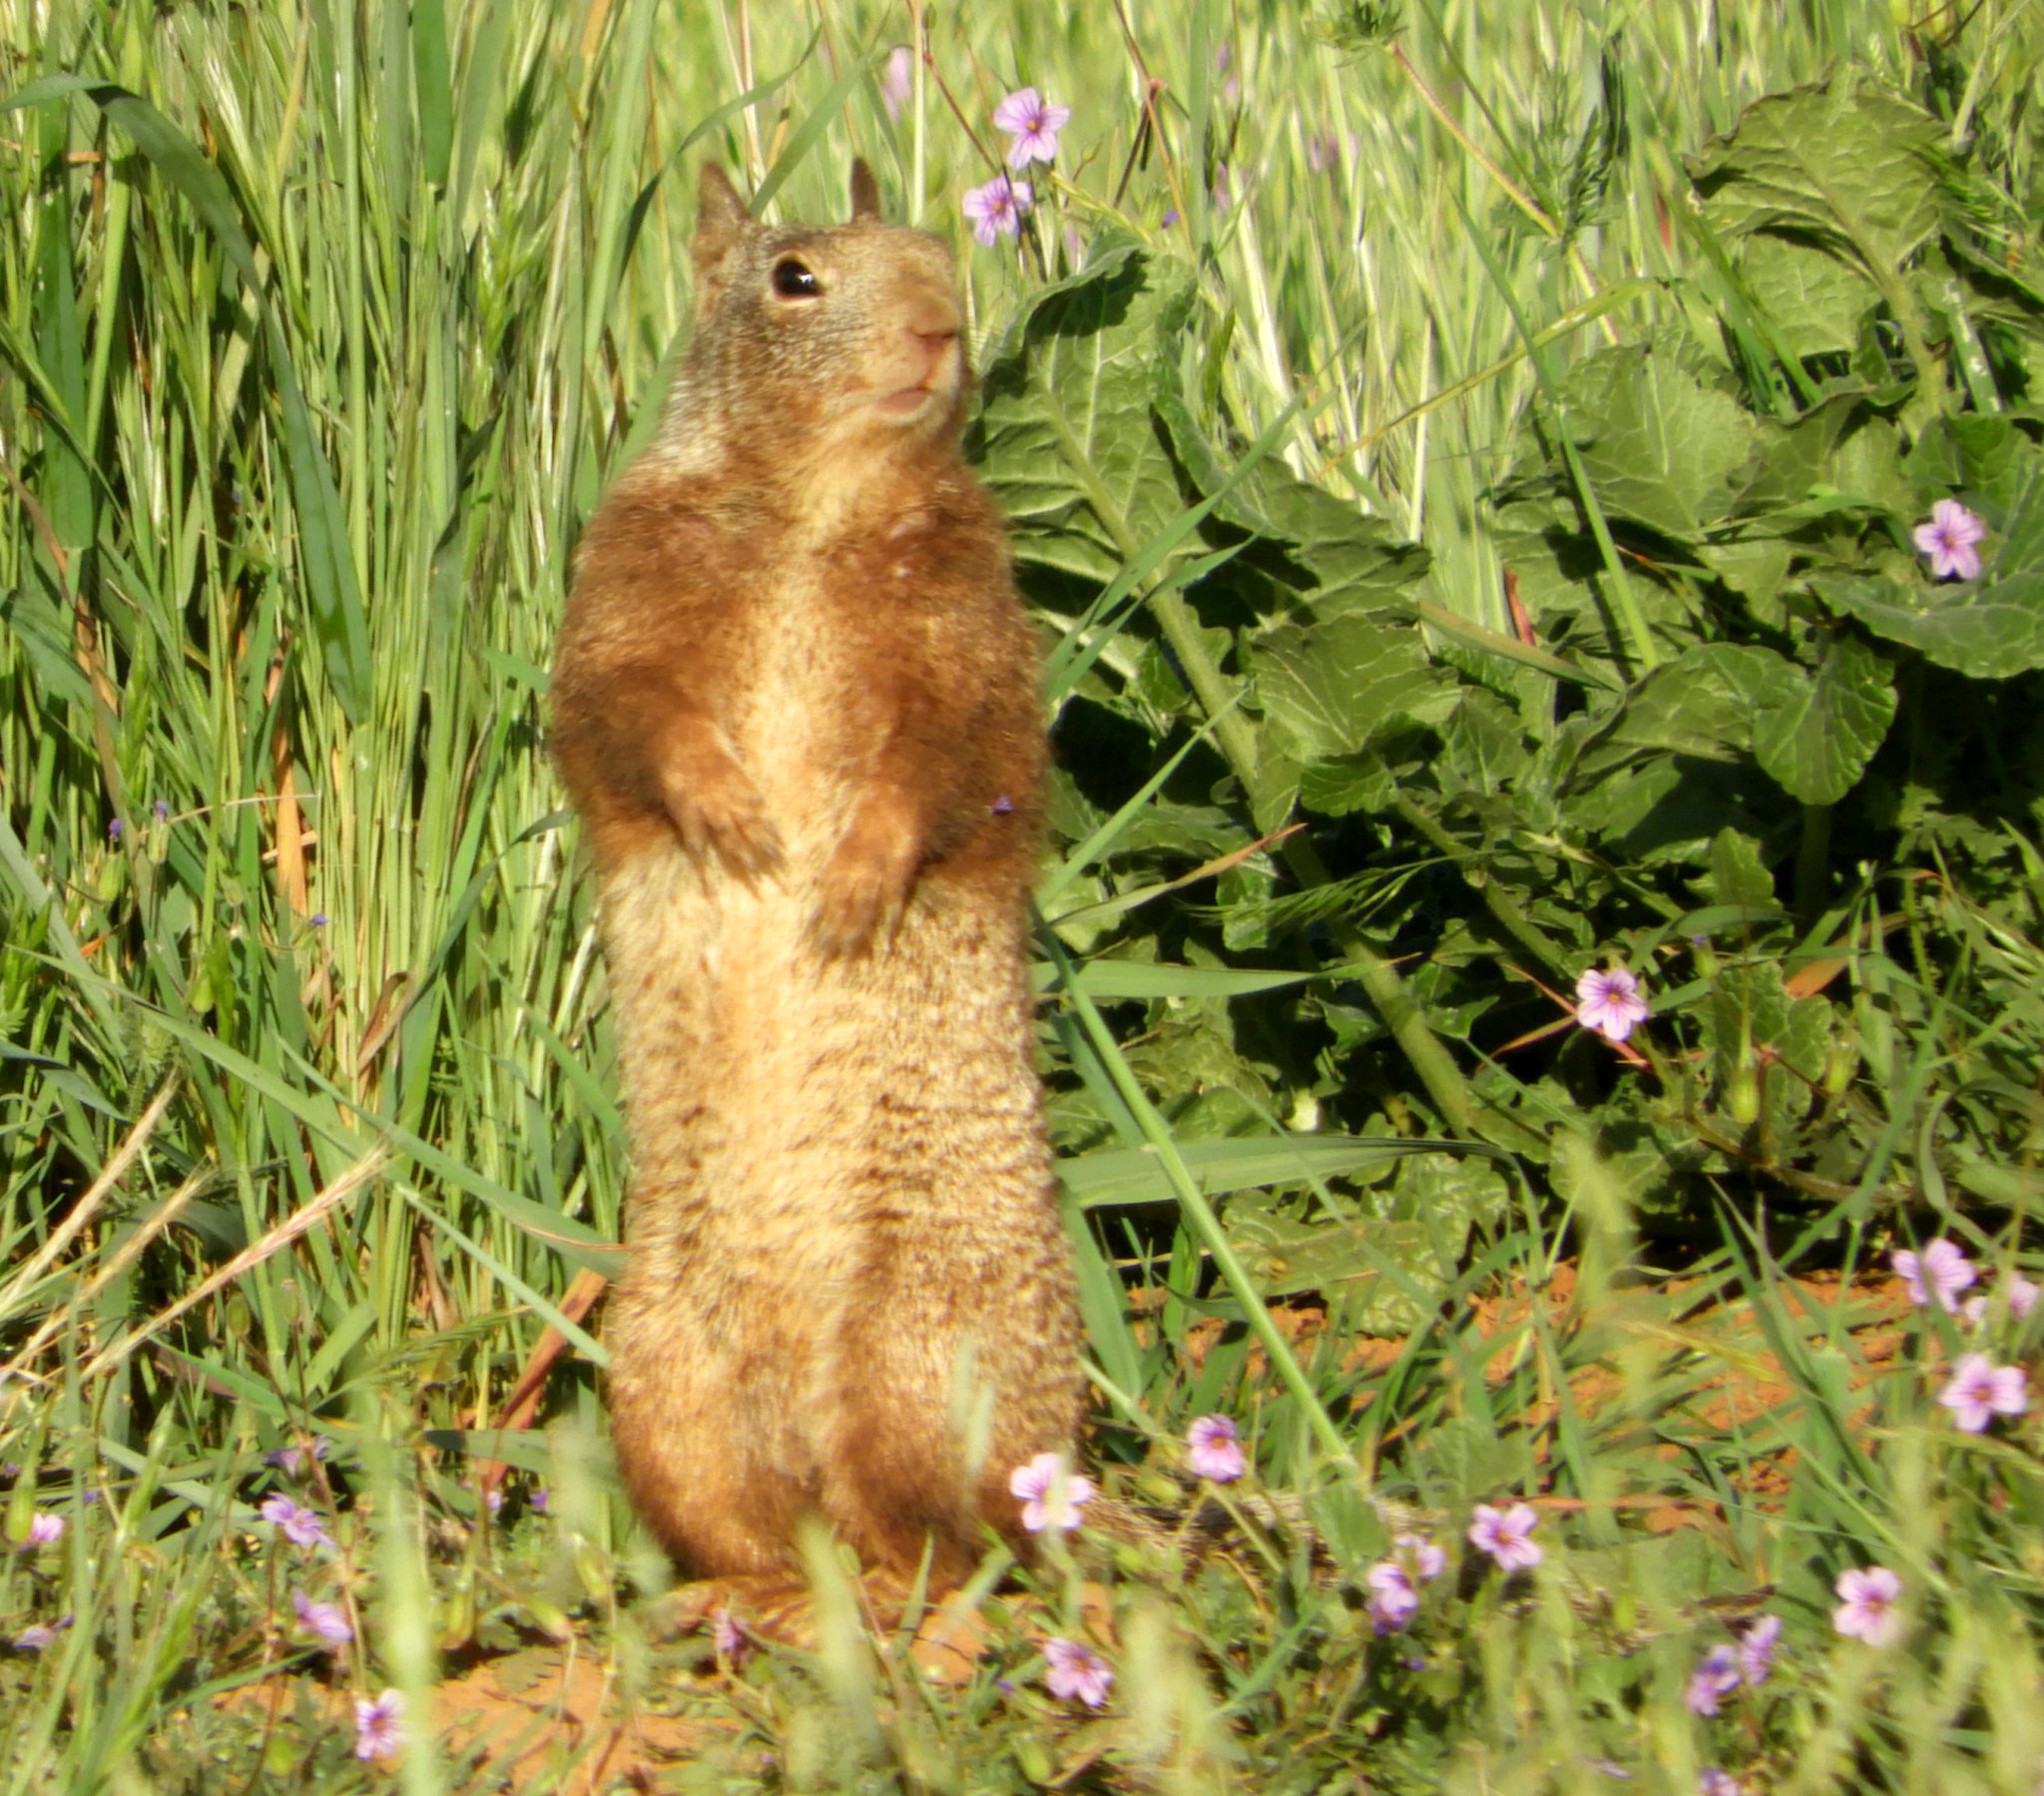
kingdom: Animalia
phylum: Chordata
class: Mammalia
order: Rodentia
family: Sciuridae
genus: Otospermophilus
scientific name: Otospermophilus beecheyi
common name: California ground squirrel
